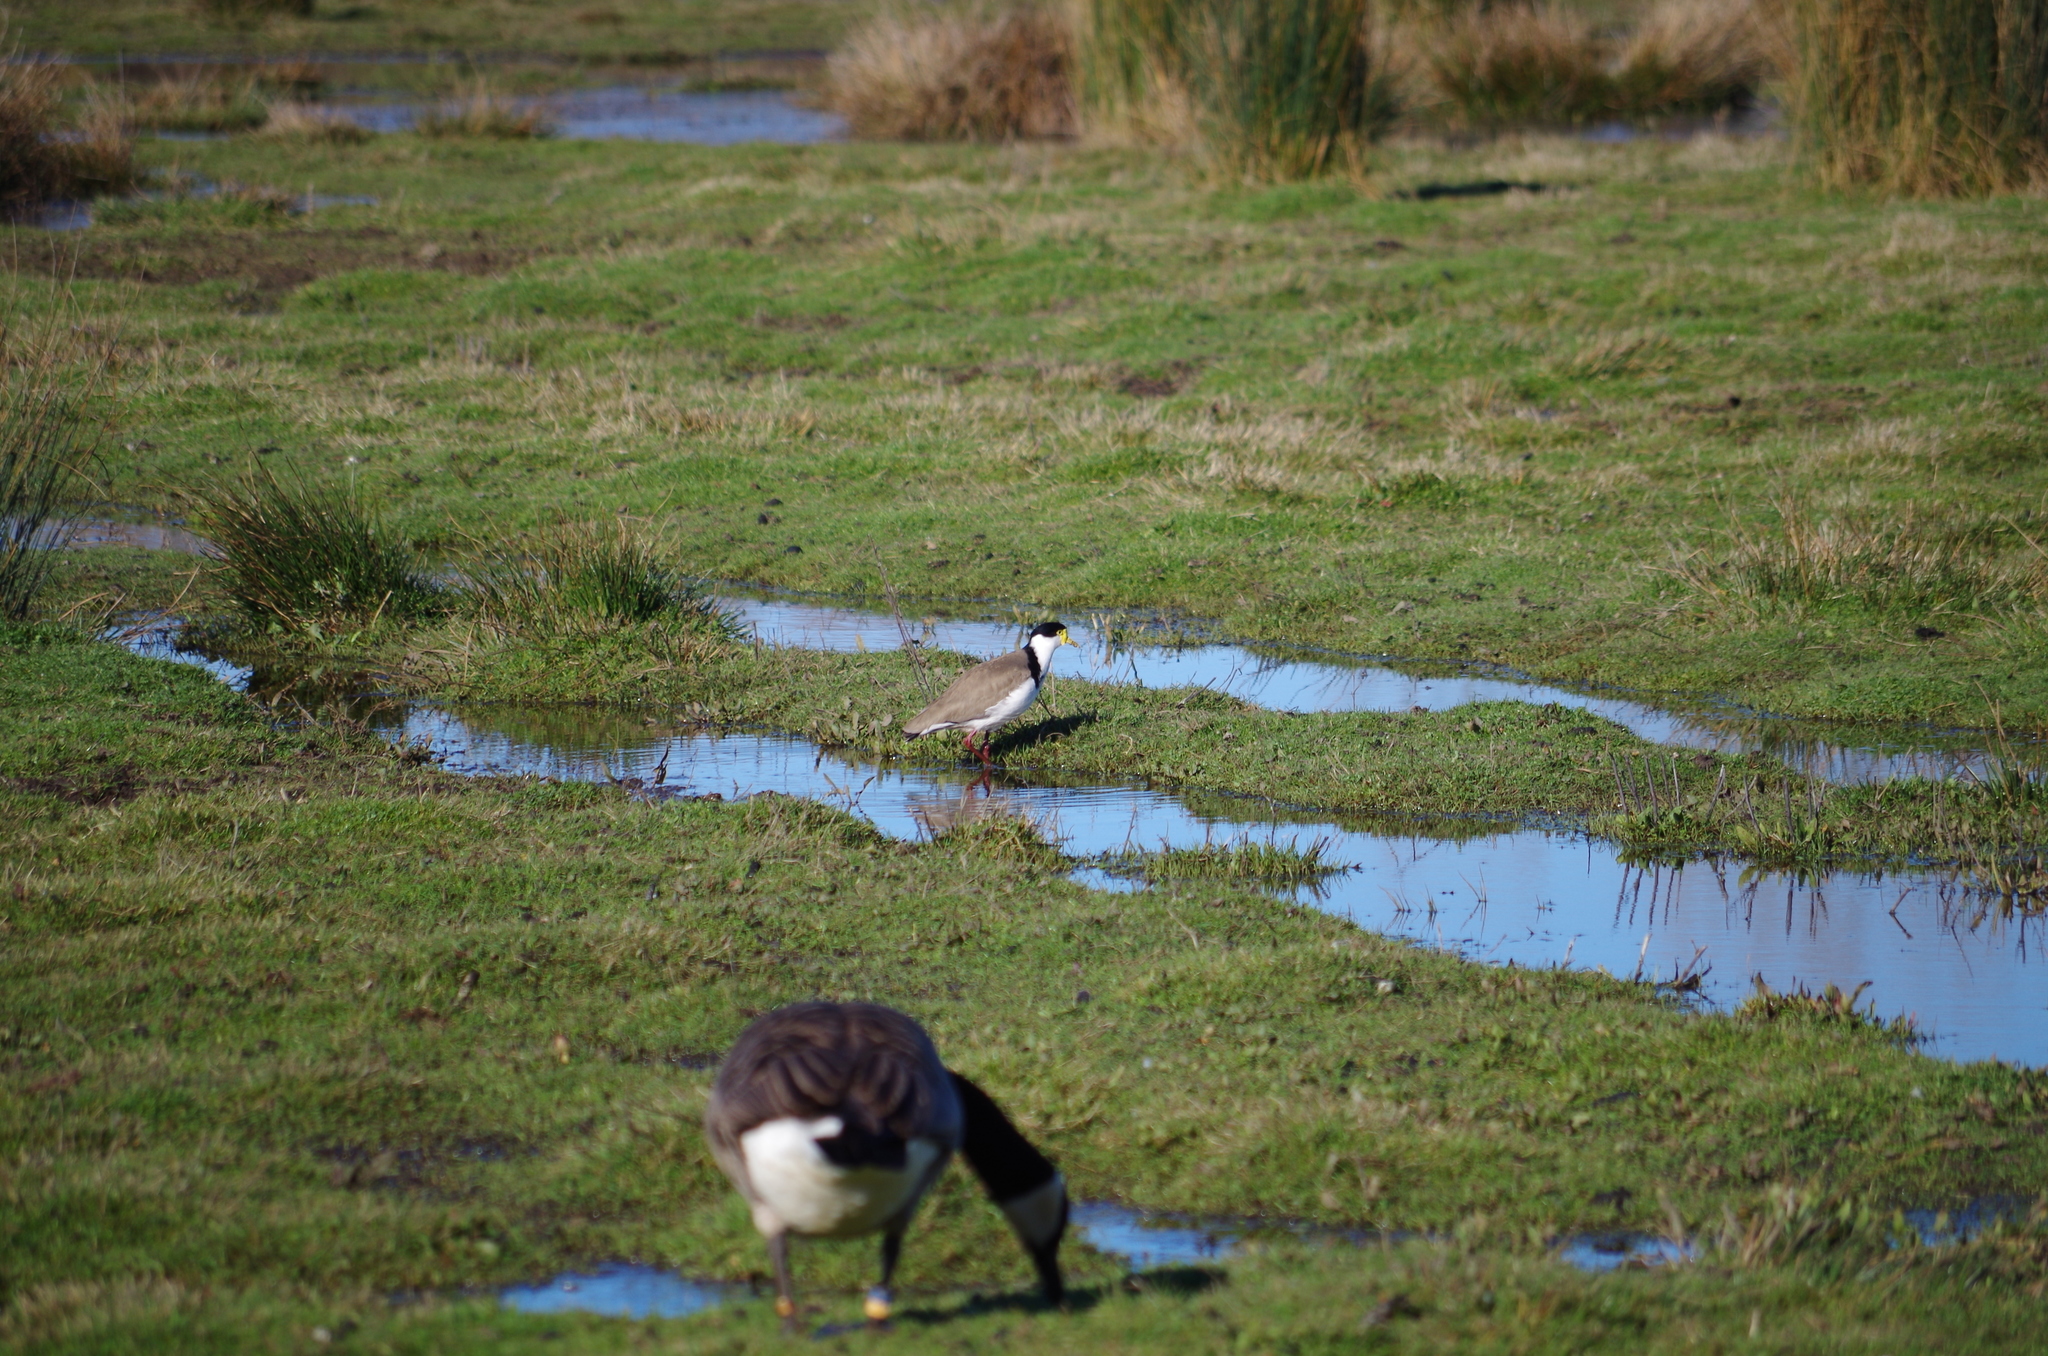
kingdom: Animalia
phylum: Chordata
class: Aves
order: Charadriiformes
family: Charadriidae
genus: Vanellus
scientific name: Vanellus miles
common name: Masked lapwing
